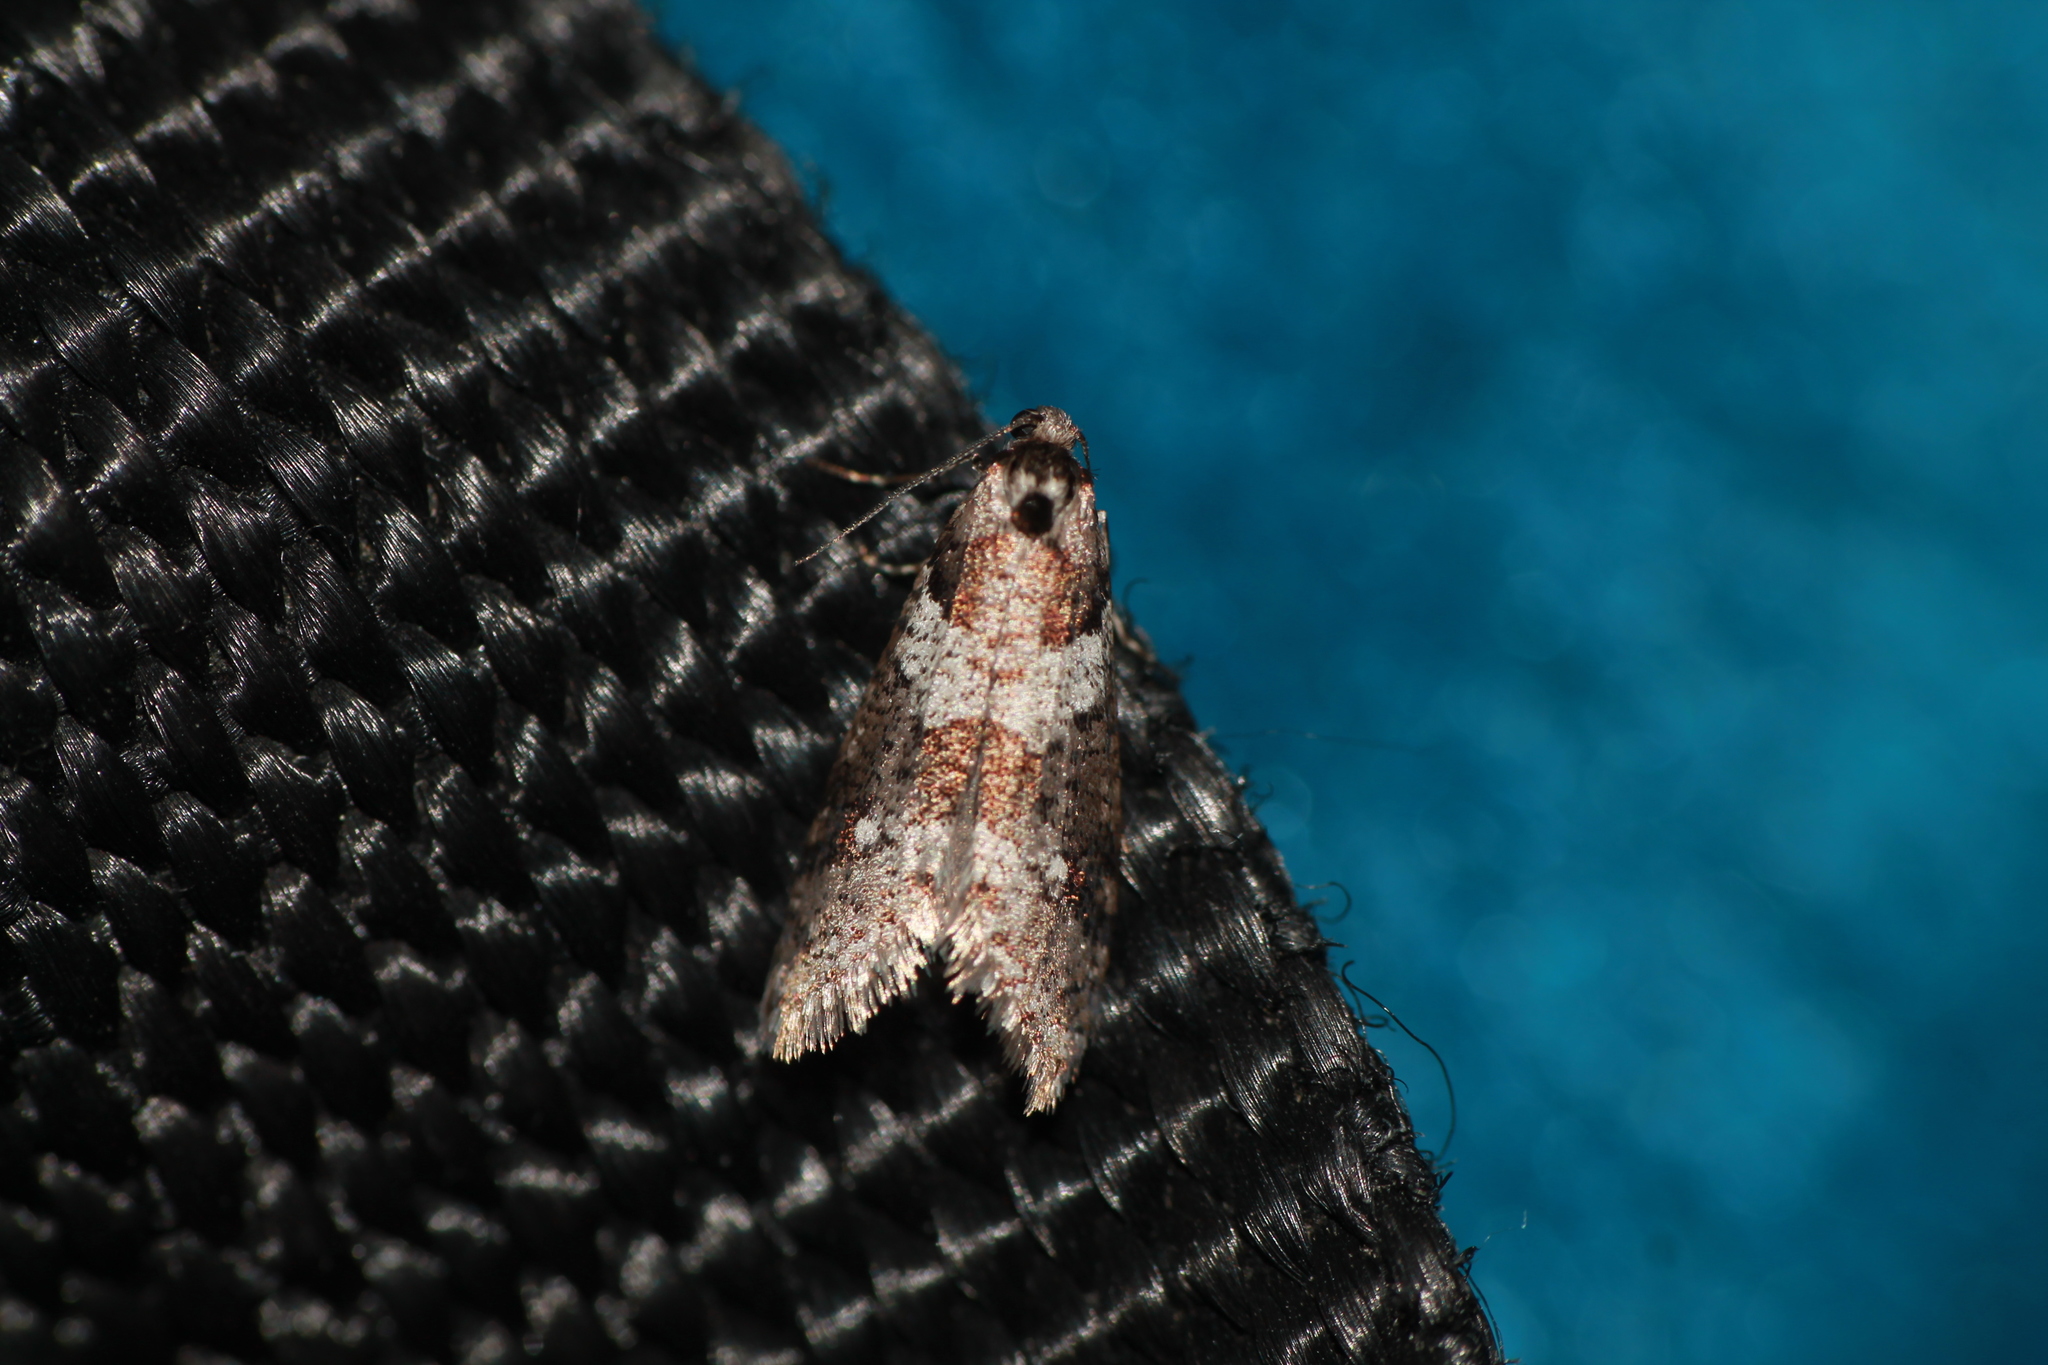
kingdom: Animalia
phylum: Arthropoda
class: Insecta
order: Lepidoptera
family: Psychidae
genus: Lepidoscia
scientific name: Lepidoscia heliochares
